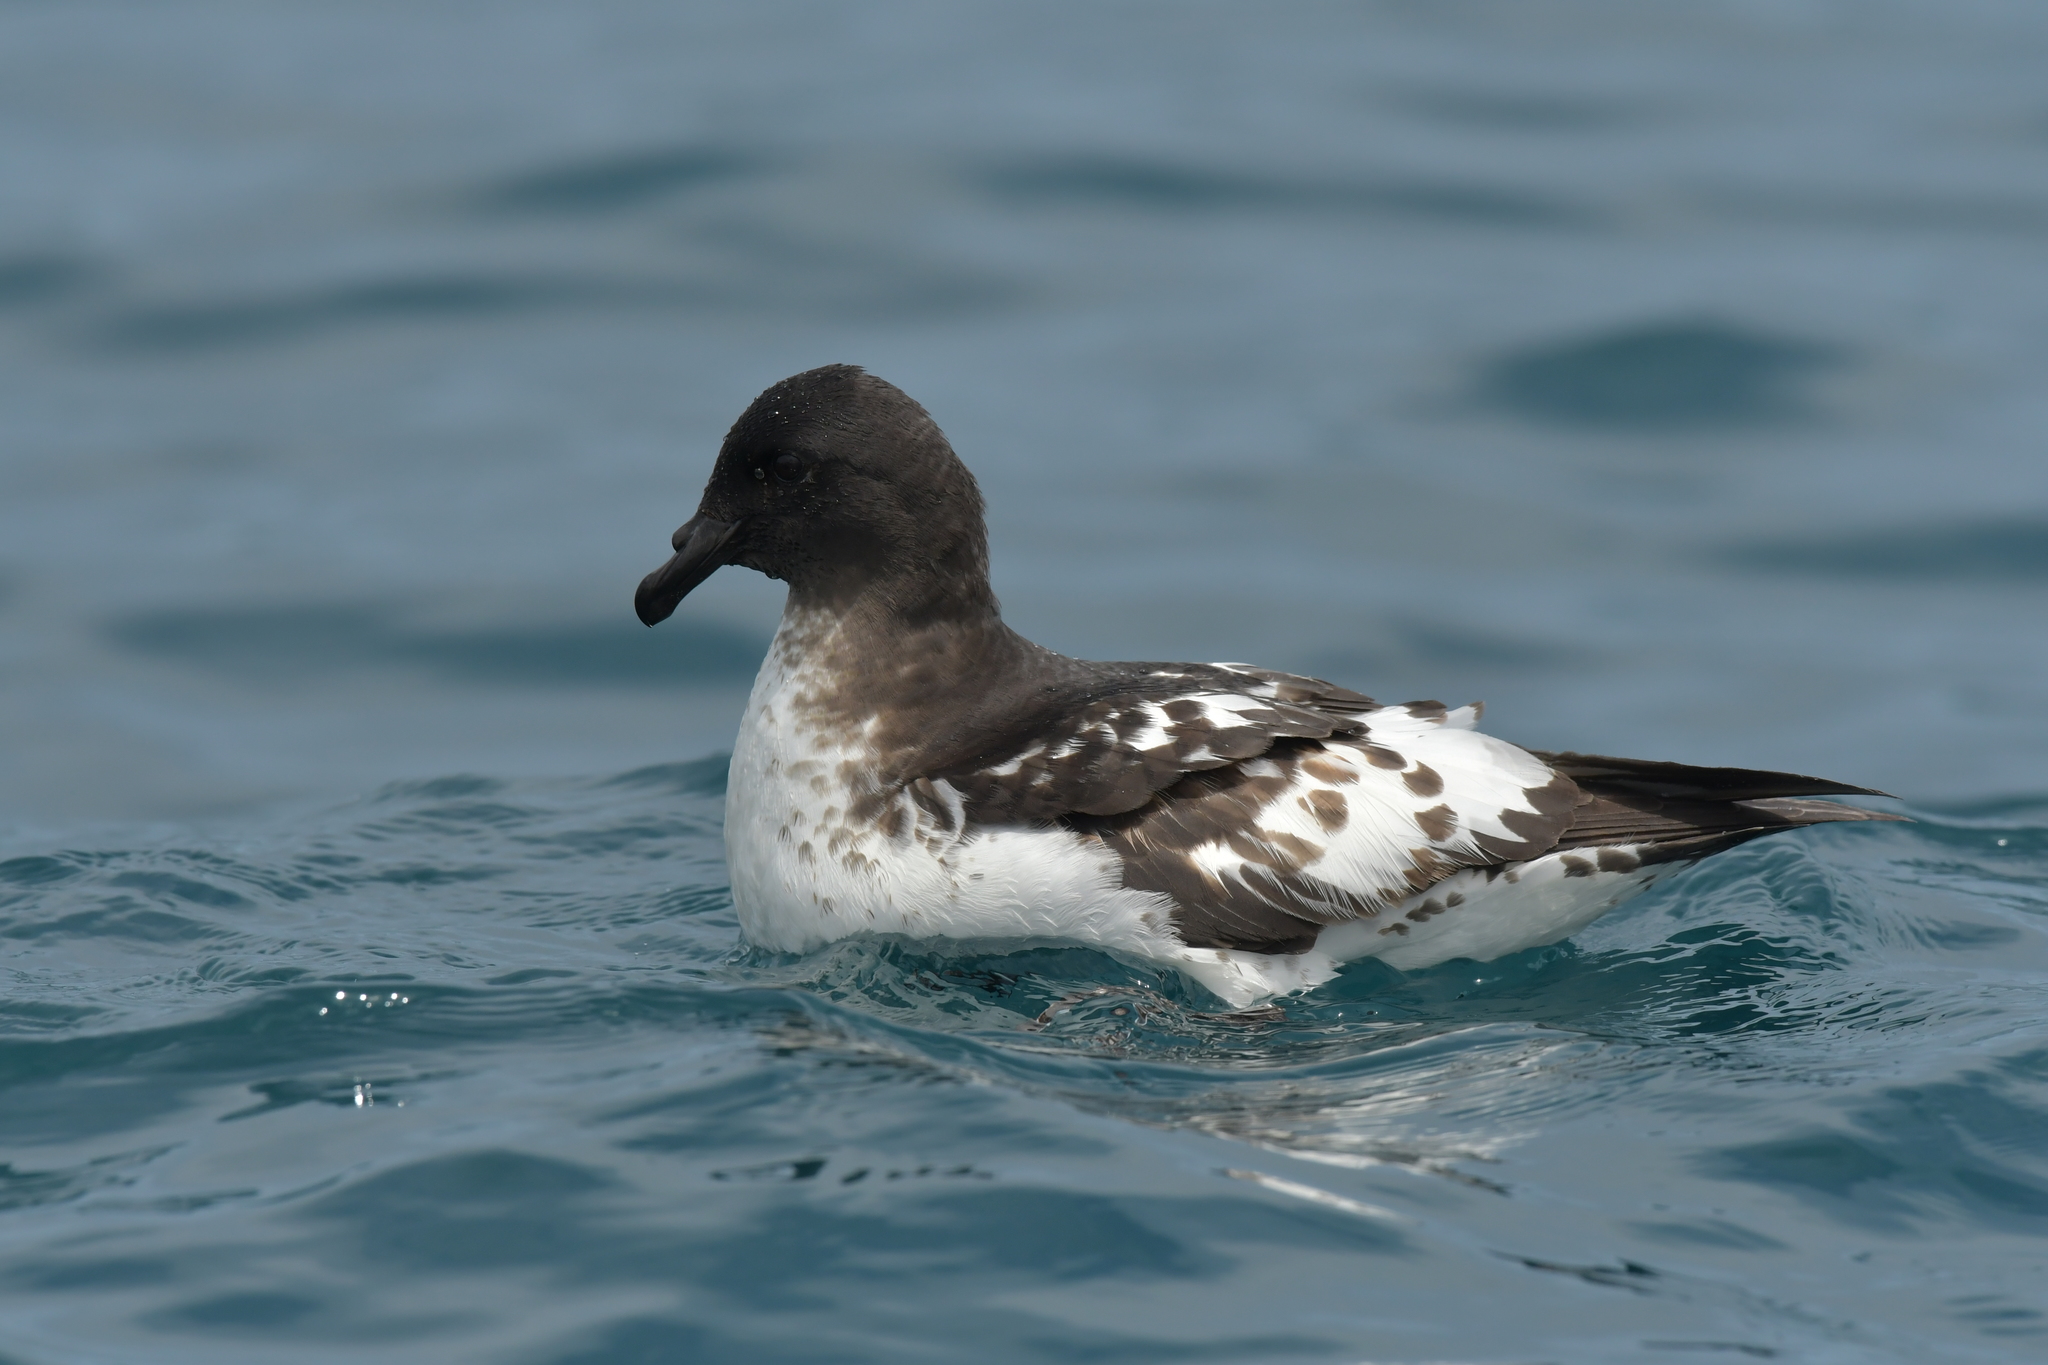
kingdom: Animalia
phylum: Chordata
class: Aves
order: Procellariiformes
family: Procellariidae
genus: Daption
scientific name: Daption capense
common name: Cape petrel
